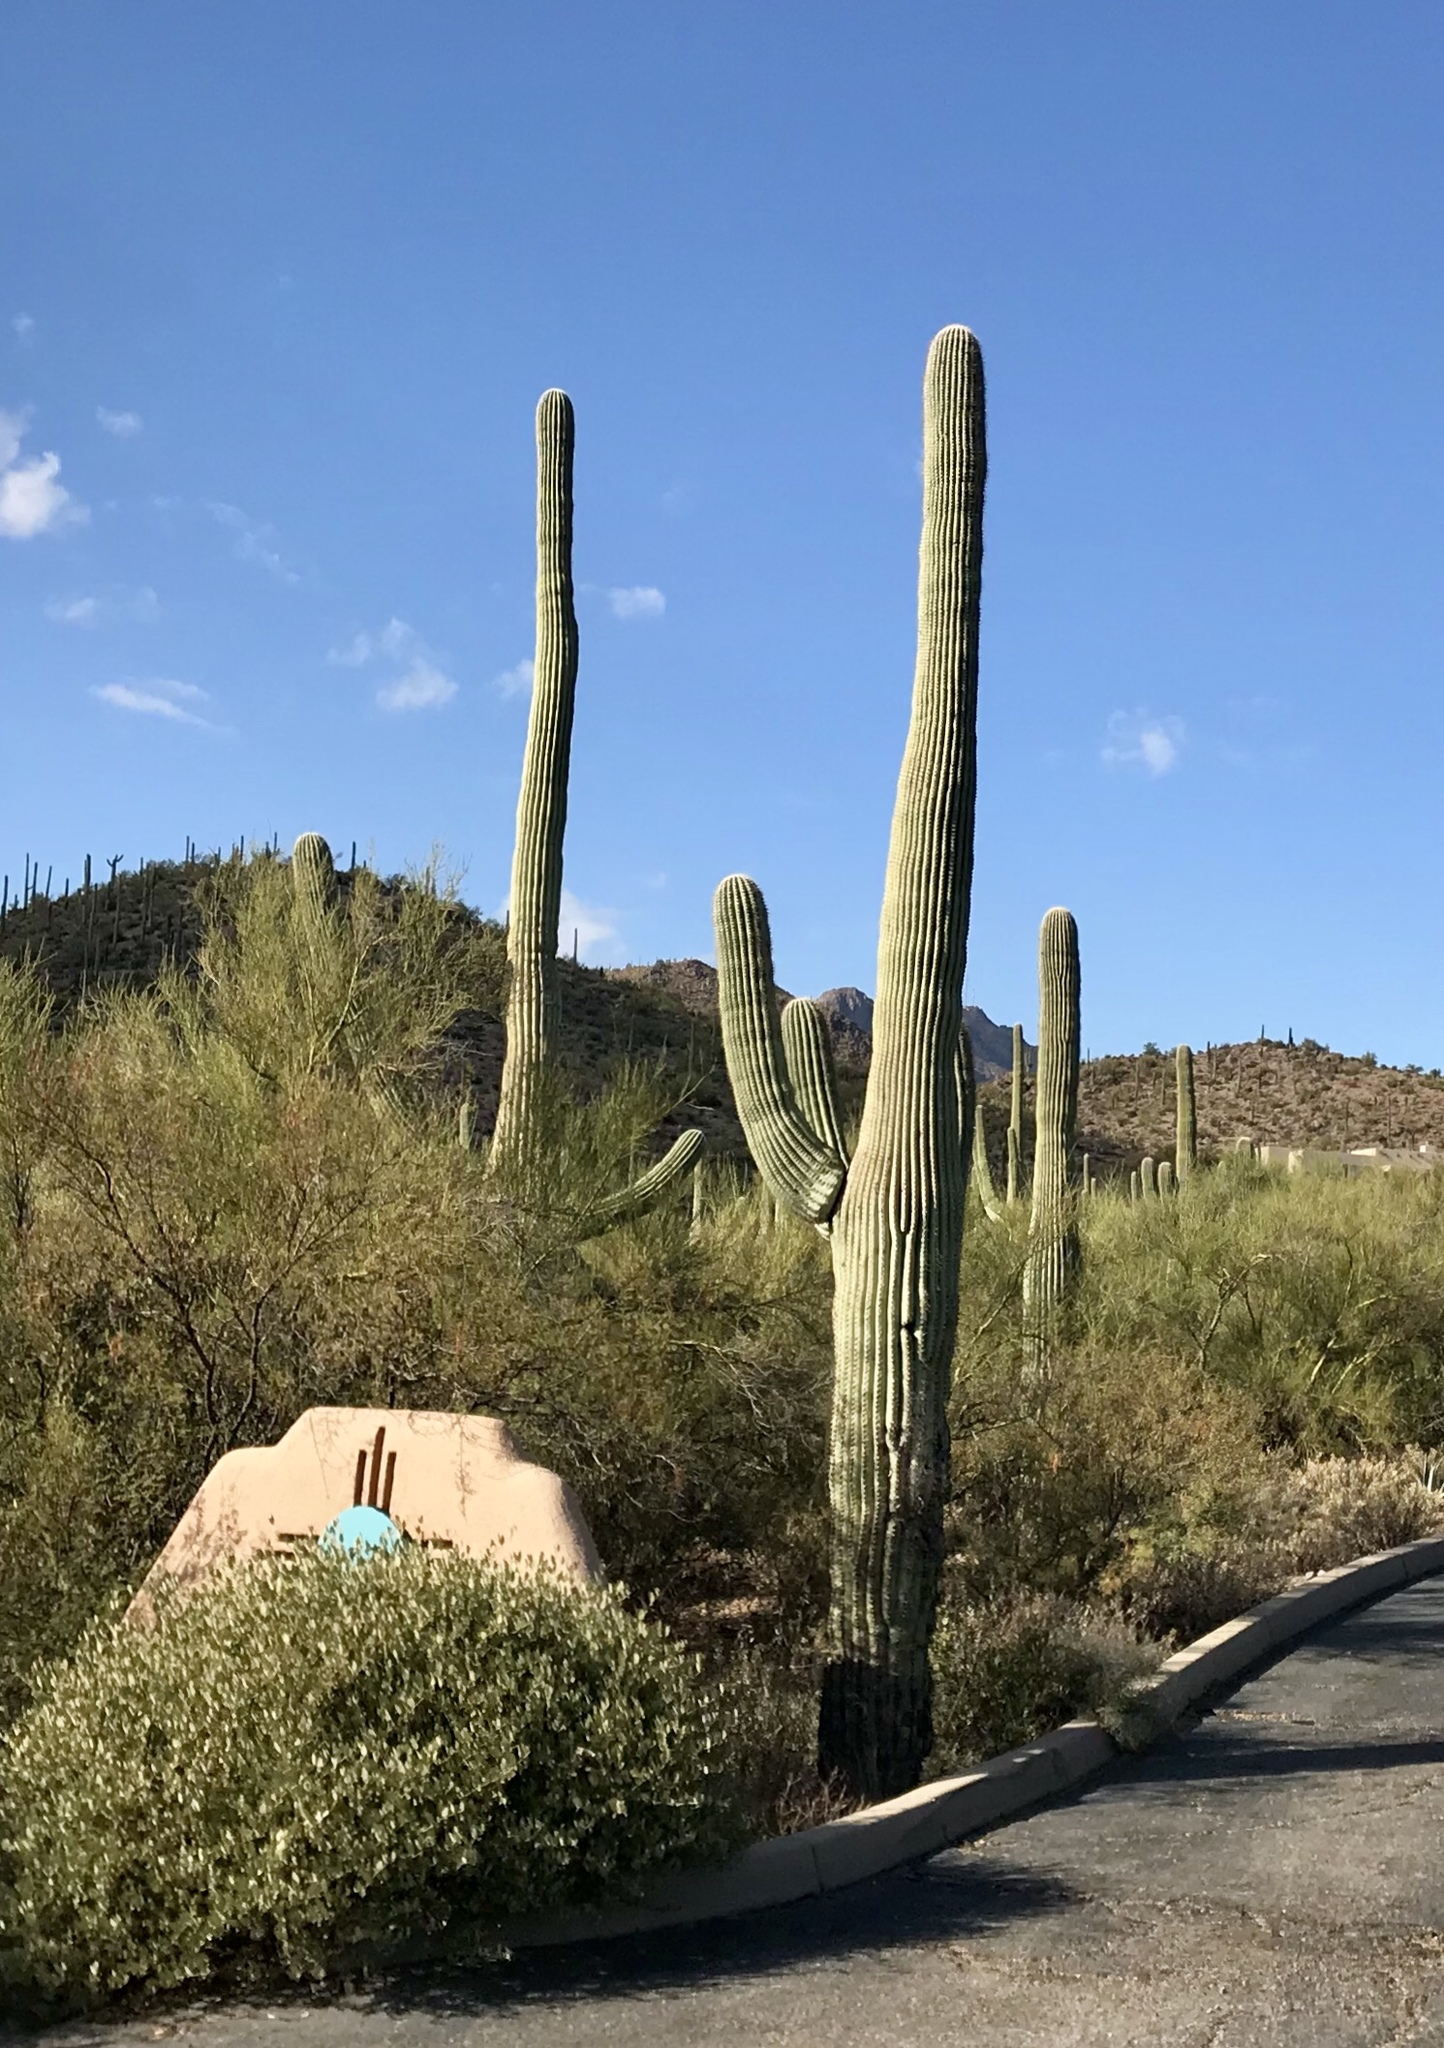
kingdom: Plantae
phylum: Tracheophyta
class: Magnoliopsida
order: Caryophyllales
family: Cactaceae
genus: Carnegiea
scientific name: Carnegiea gigantea
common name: Saguaro
